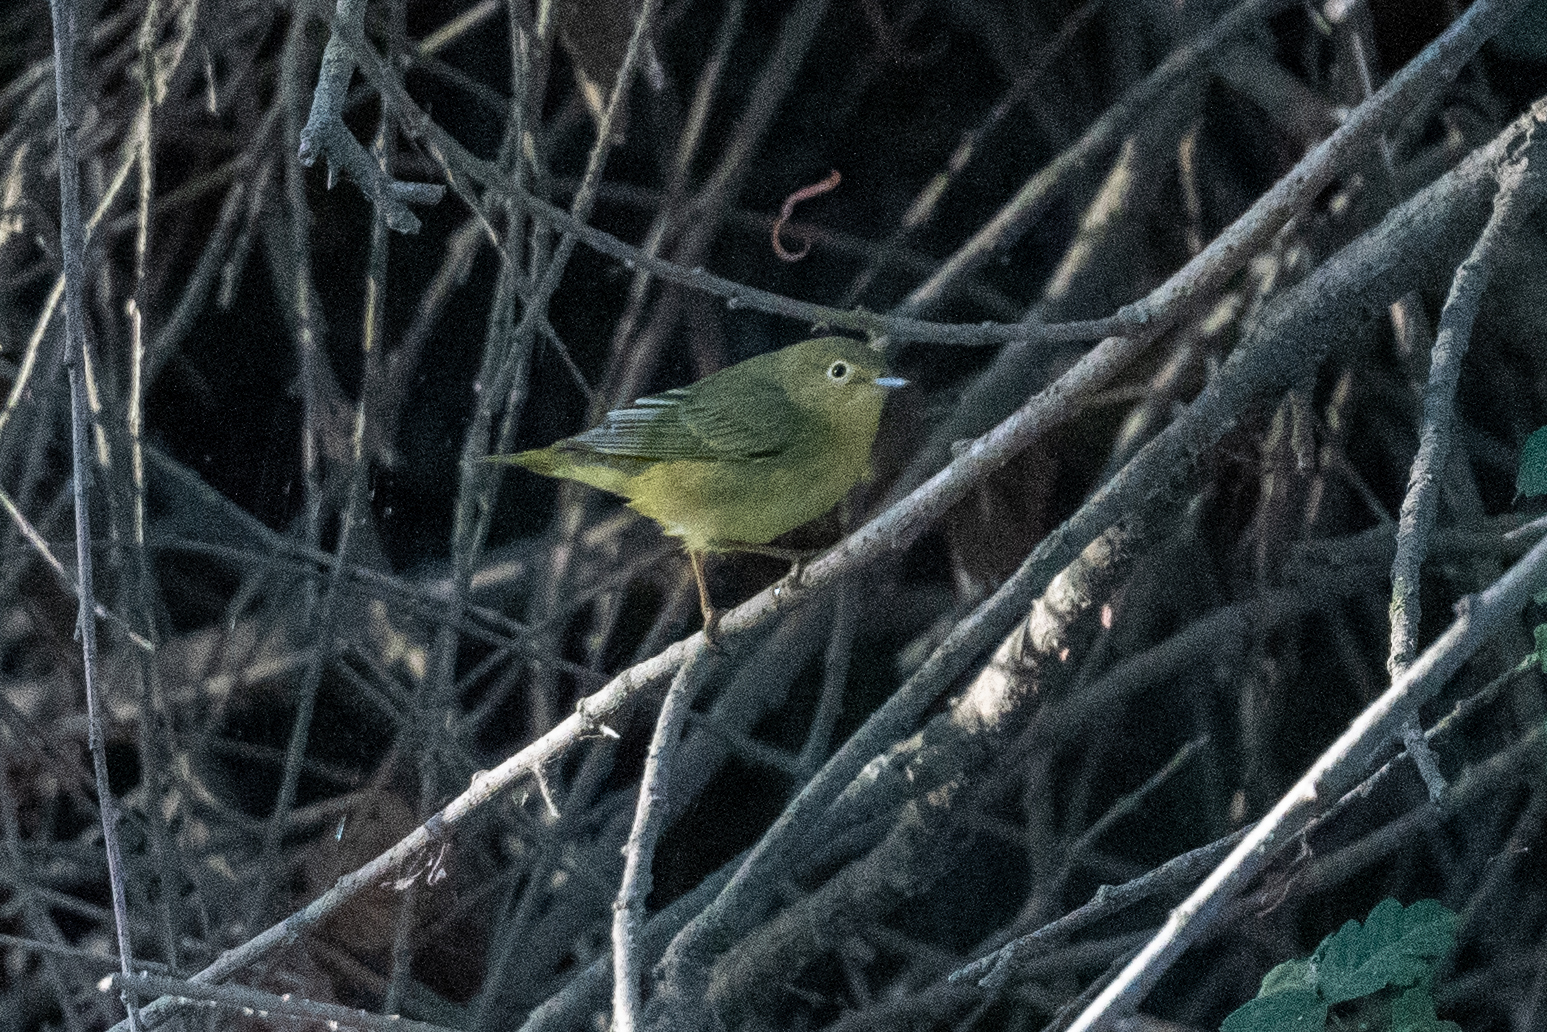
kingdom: Animalia
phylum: Chordata
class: Aves
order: Passeriformes
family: Parulidae
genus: Setophaga
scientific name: Setophaga petechia
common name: Yellow warbler
